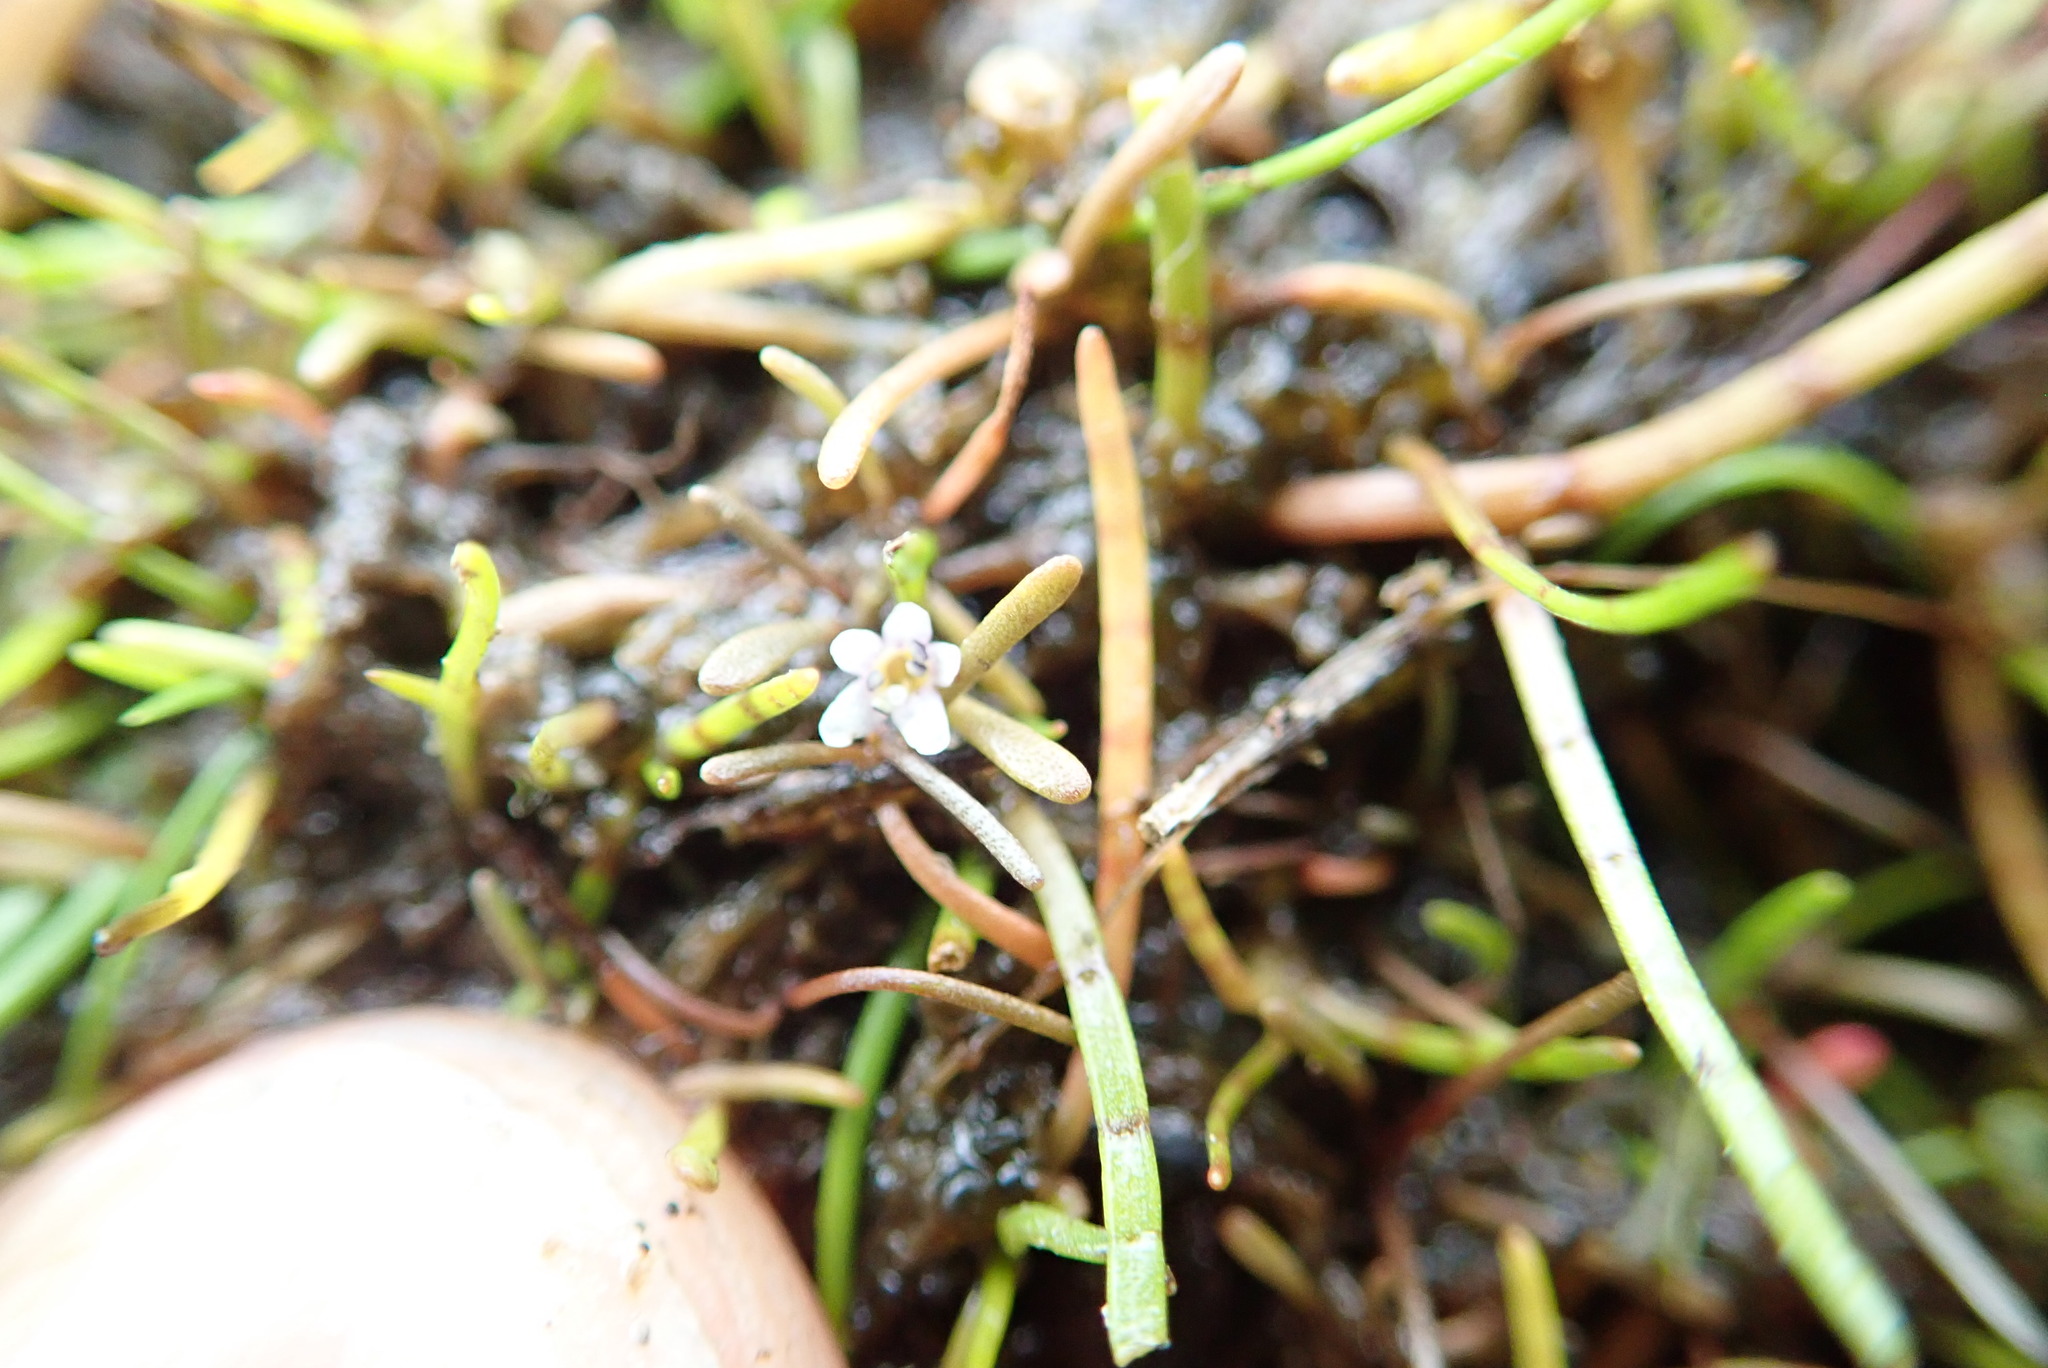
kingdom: Plantae
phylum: Tracheophyta
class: Magnoliopsida
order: Lamiales
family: Scrophulariaceae
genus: Limosella
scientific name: Limosella australis
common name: Welsh mudwort
